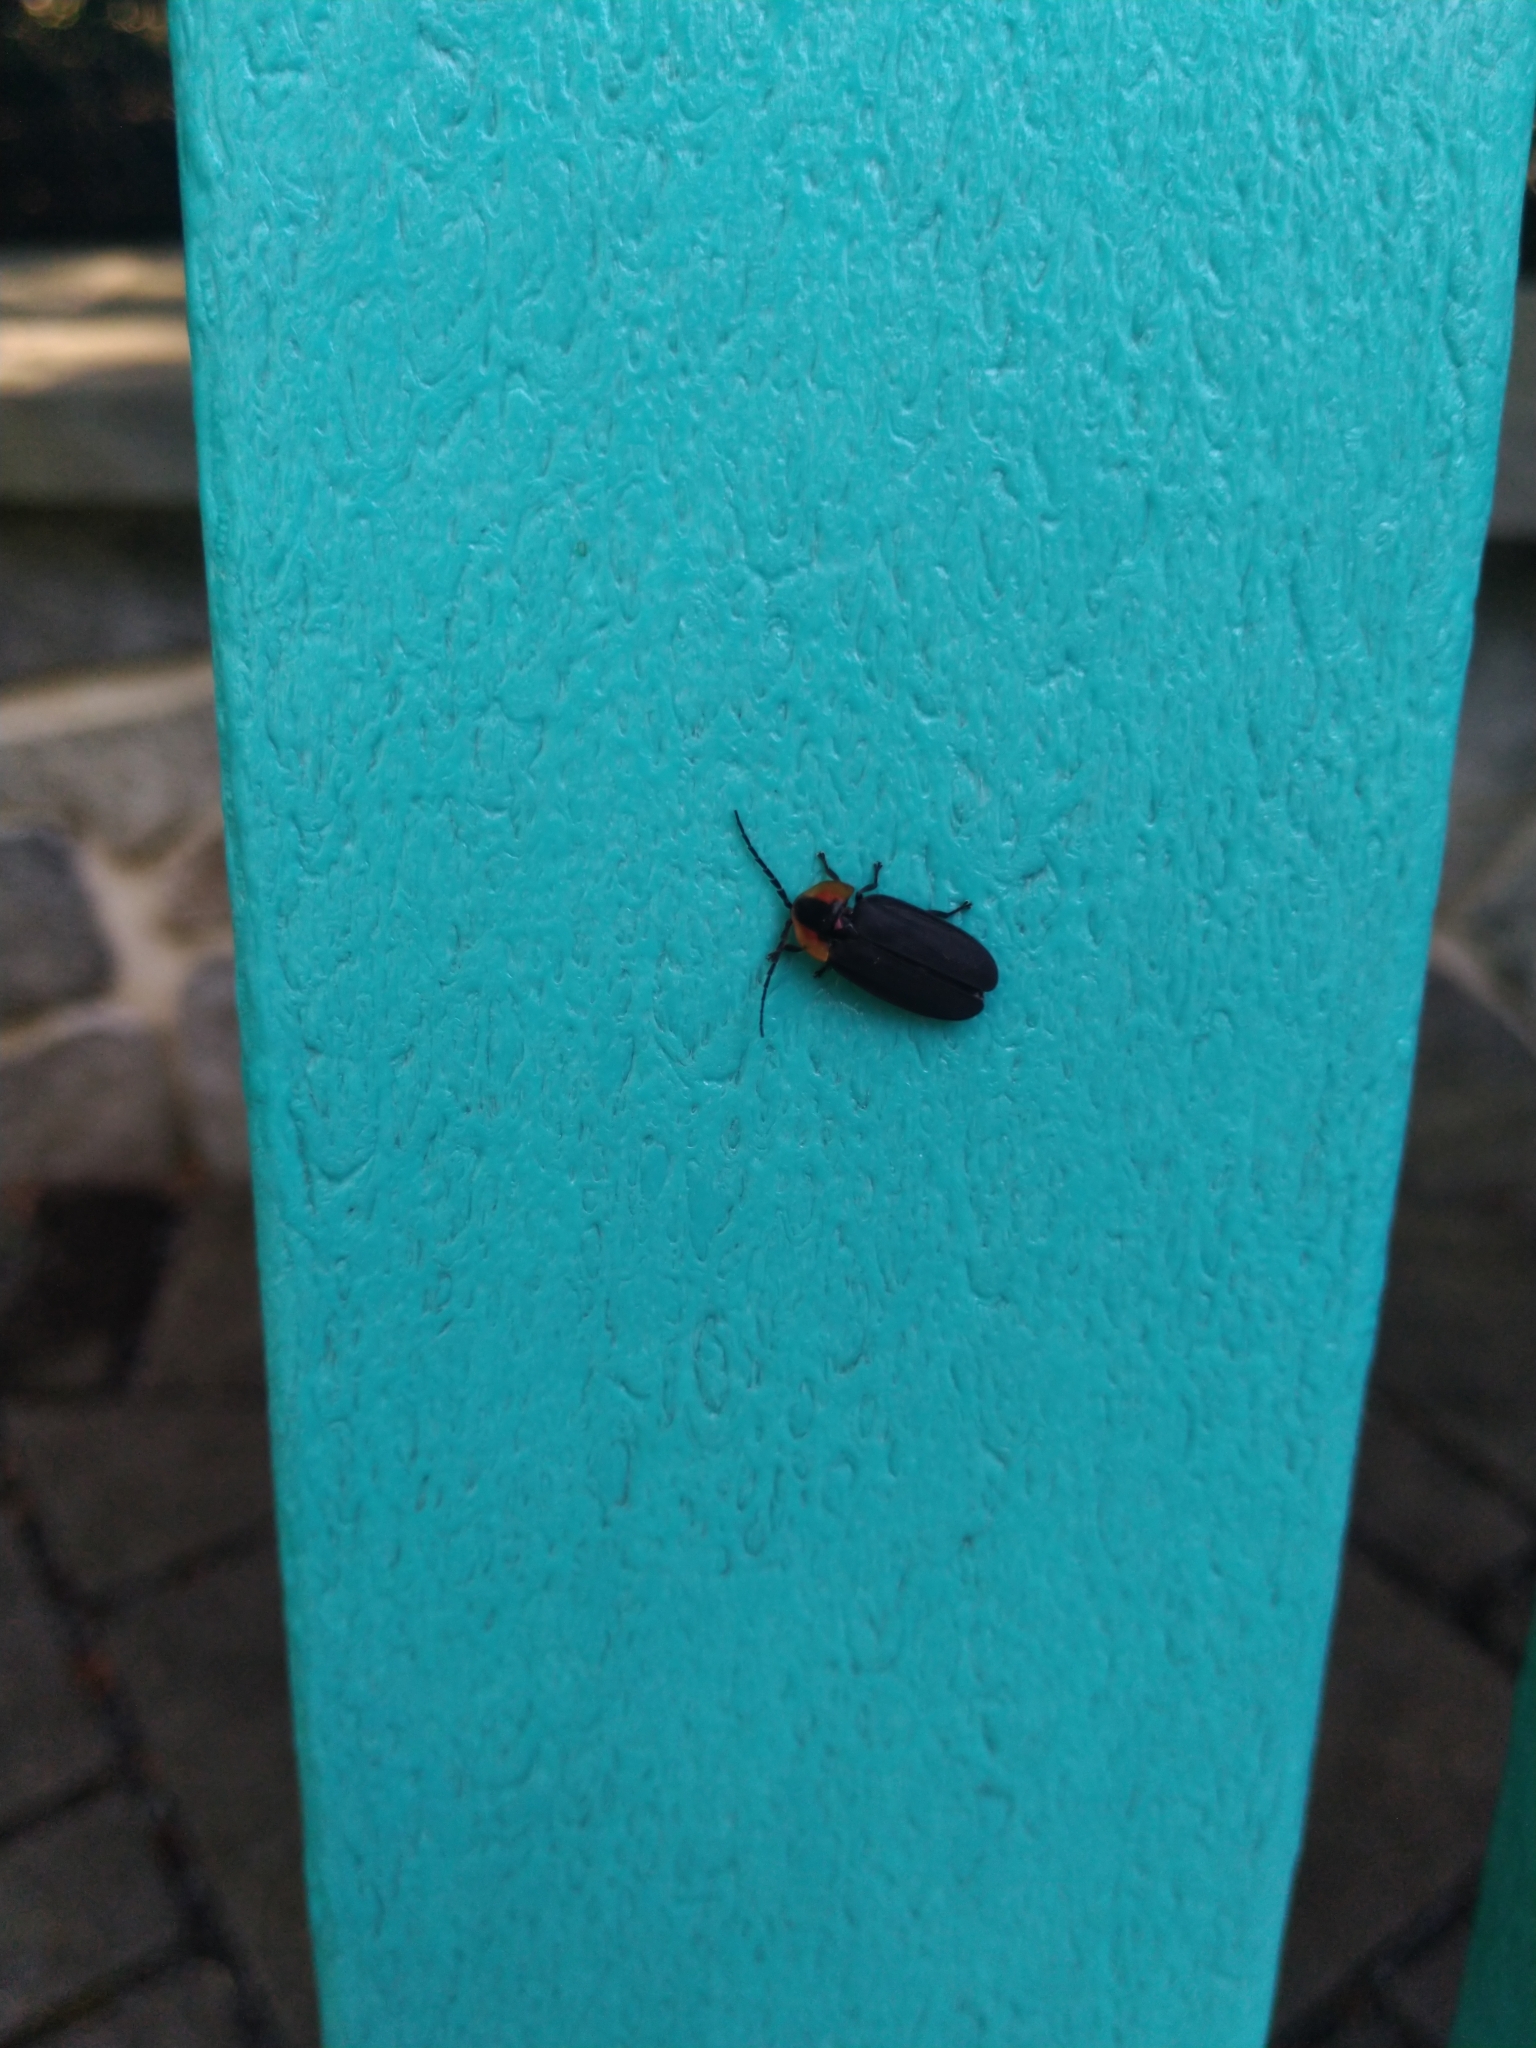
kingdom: Animalia
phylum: Arthropoda
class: Insecta
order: Coleoptera
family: Lampyridae
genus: Lucidota
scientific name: Lucidota atra
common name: Black firefly
